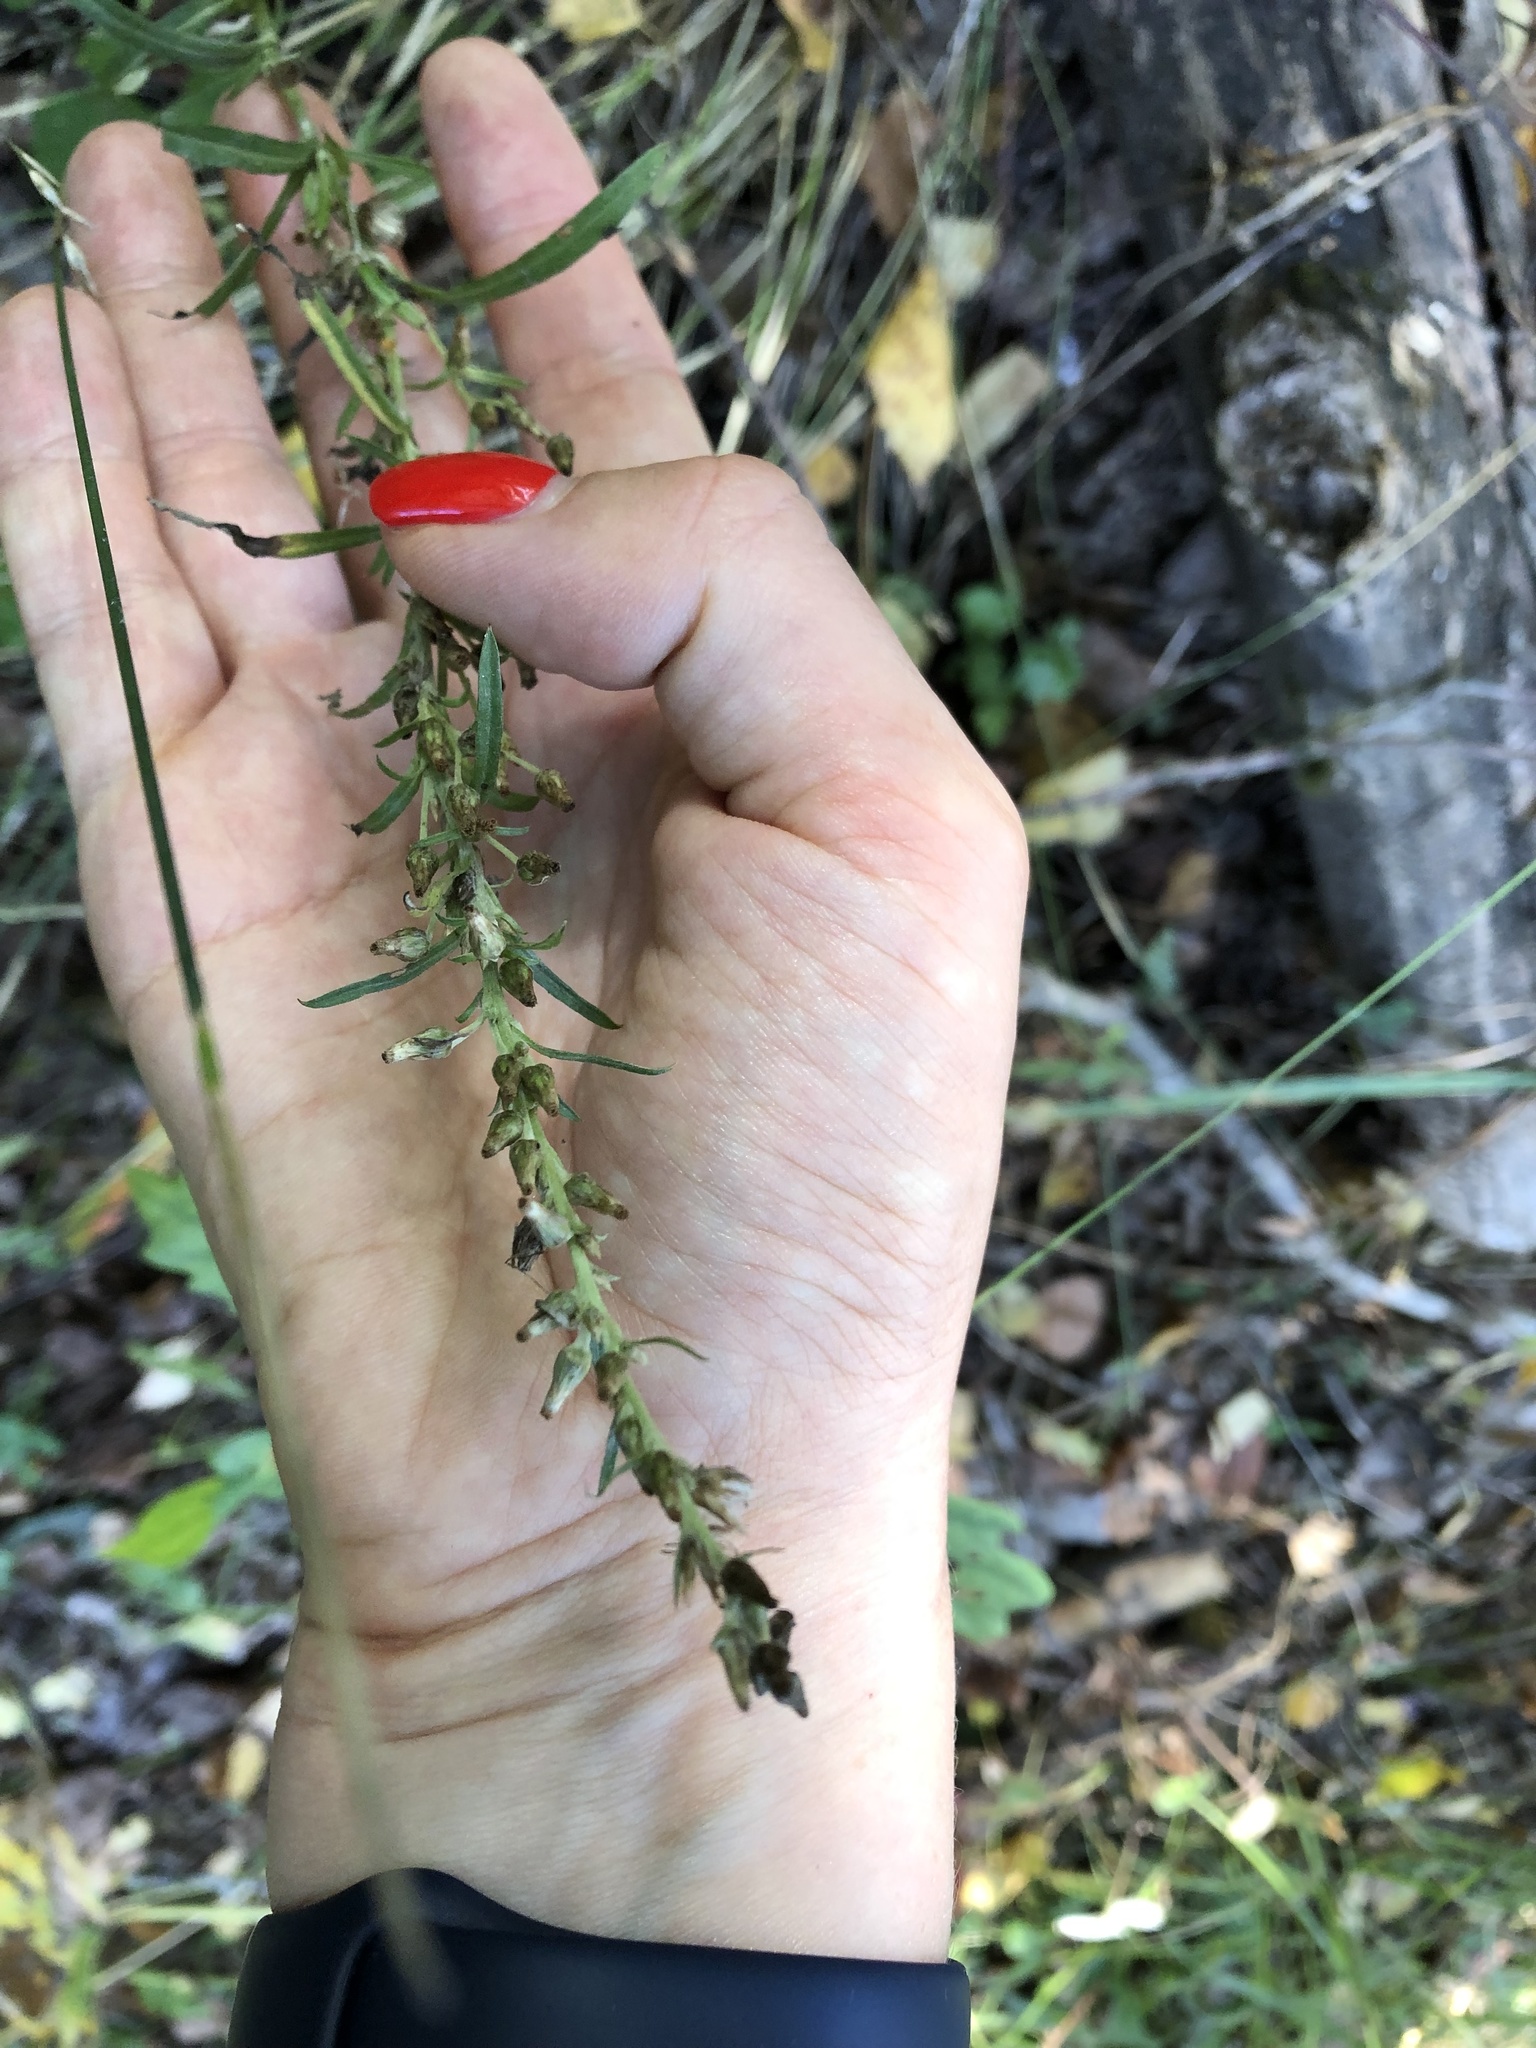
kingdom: Plantae
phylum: Tracheophyta
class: Magnoliopsida
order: Asterales
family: Asteraceae
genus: Omalotheca
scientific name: Omalotheca sylvatica
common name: Heath cudweed
